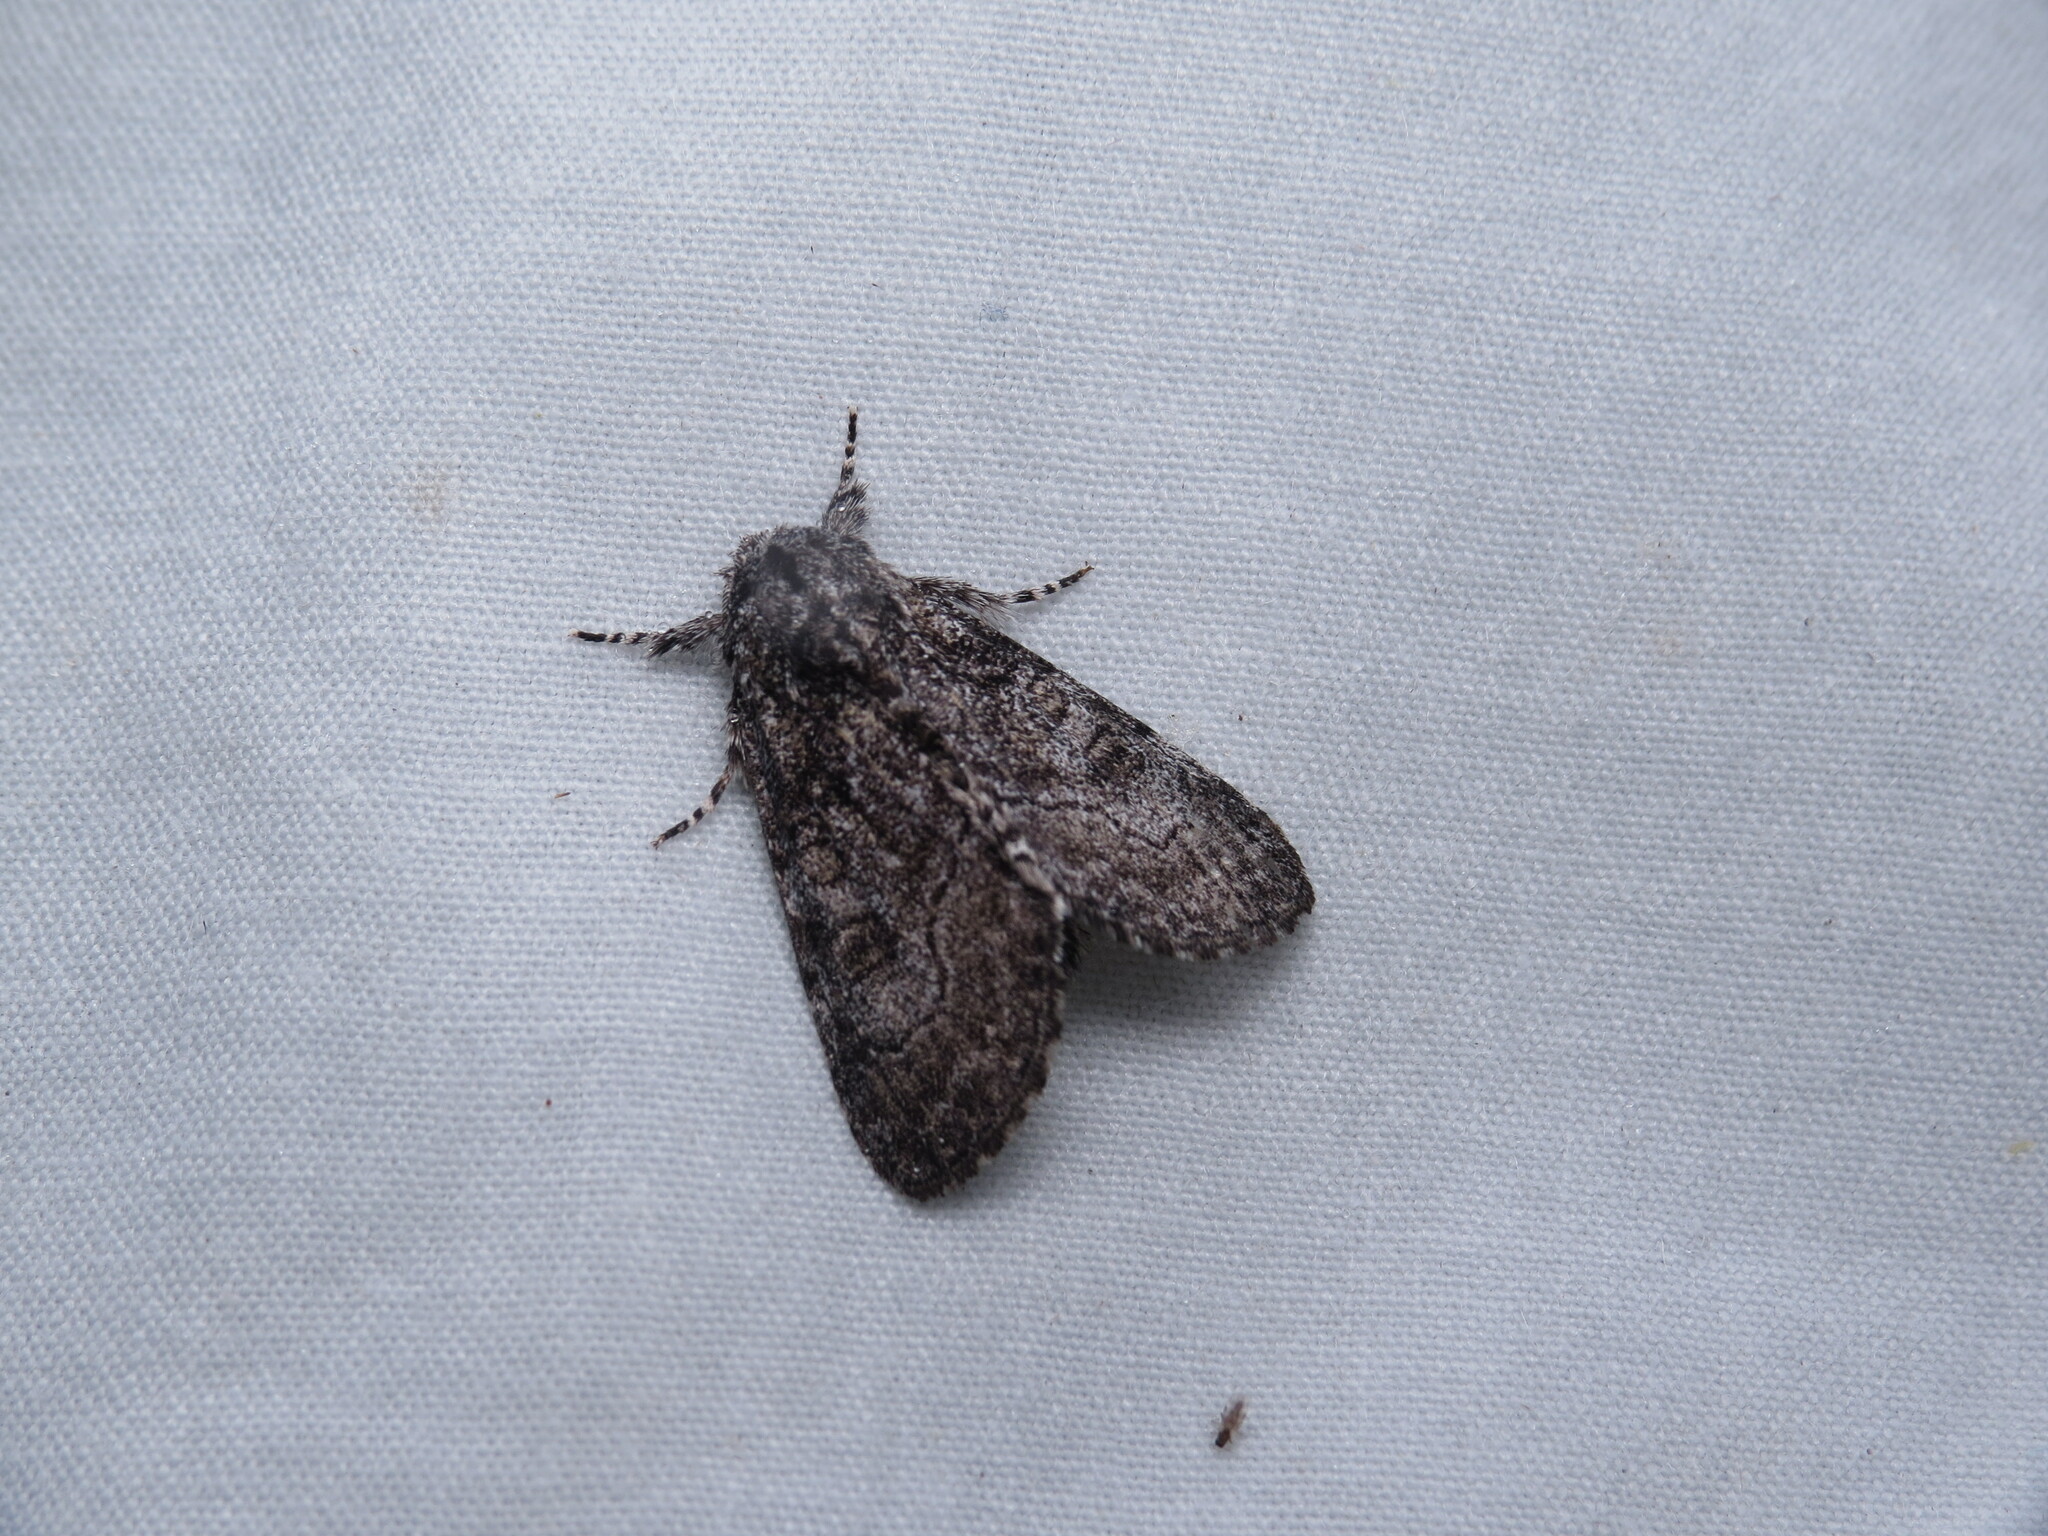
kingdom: Animalia
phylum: Arthropoda
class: Insecta
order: Lepidoptera
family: Noctuidae
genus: Raphia
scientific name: Raphia frater
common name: Brother
